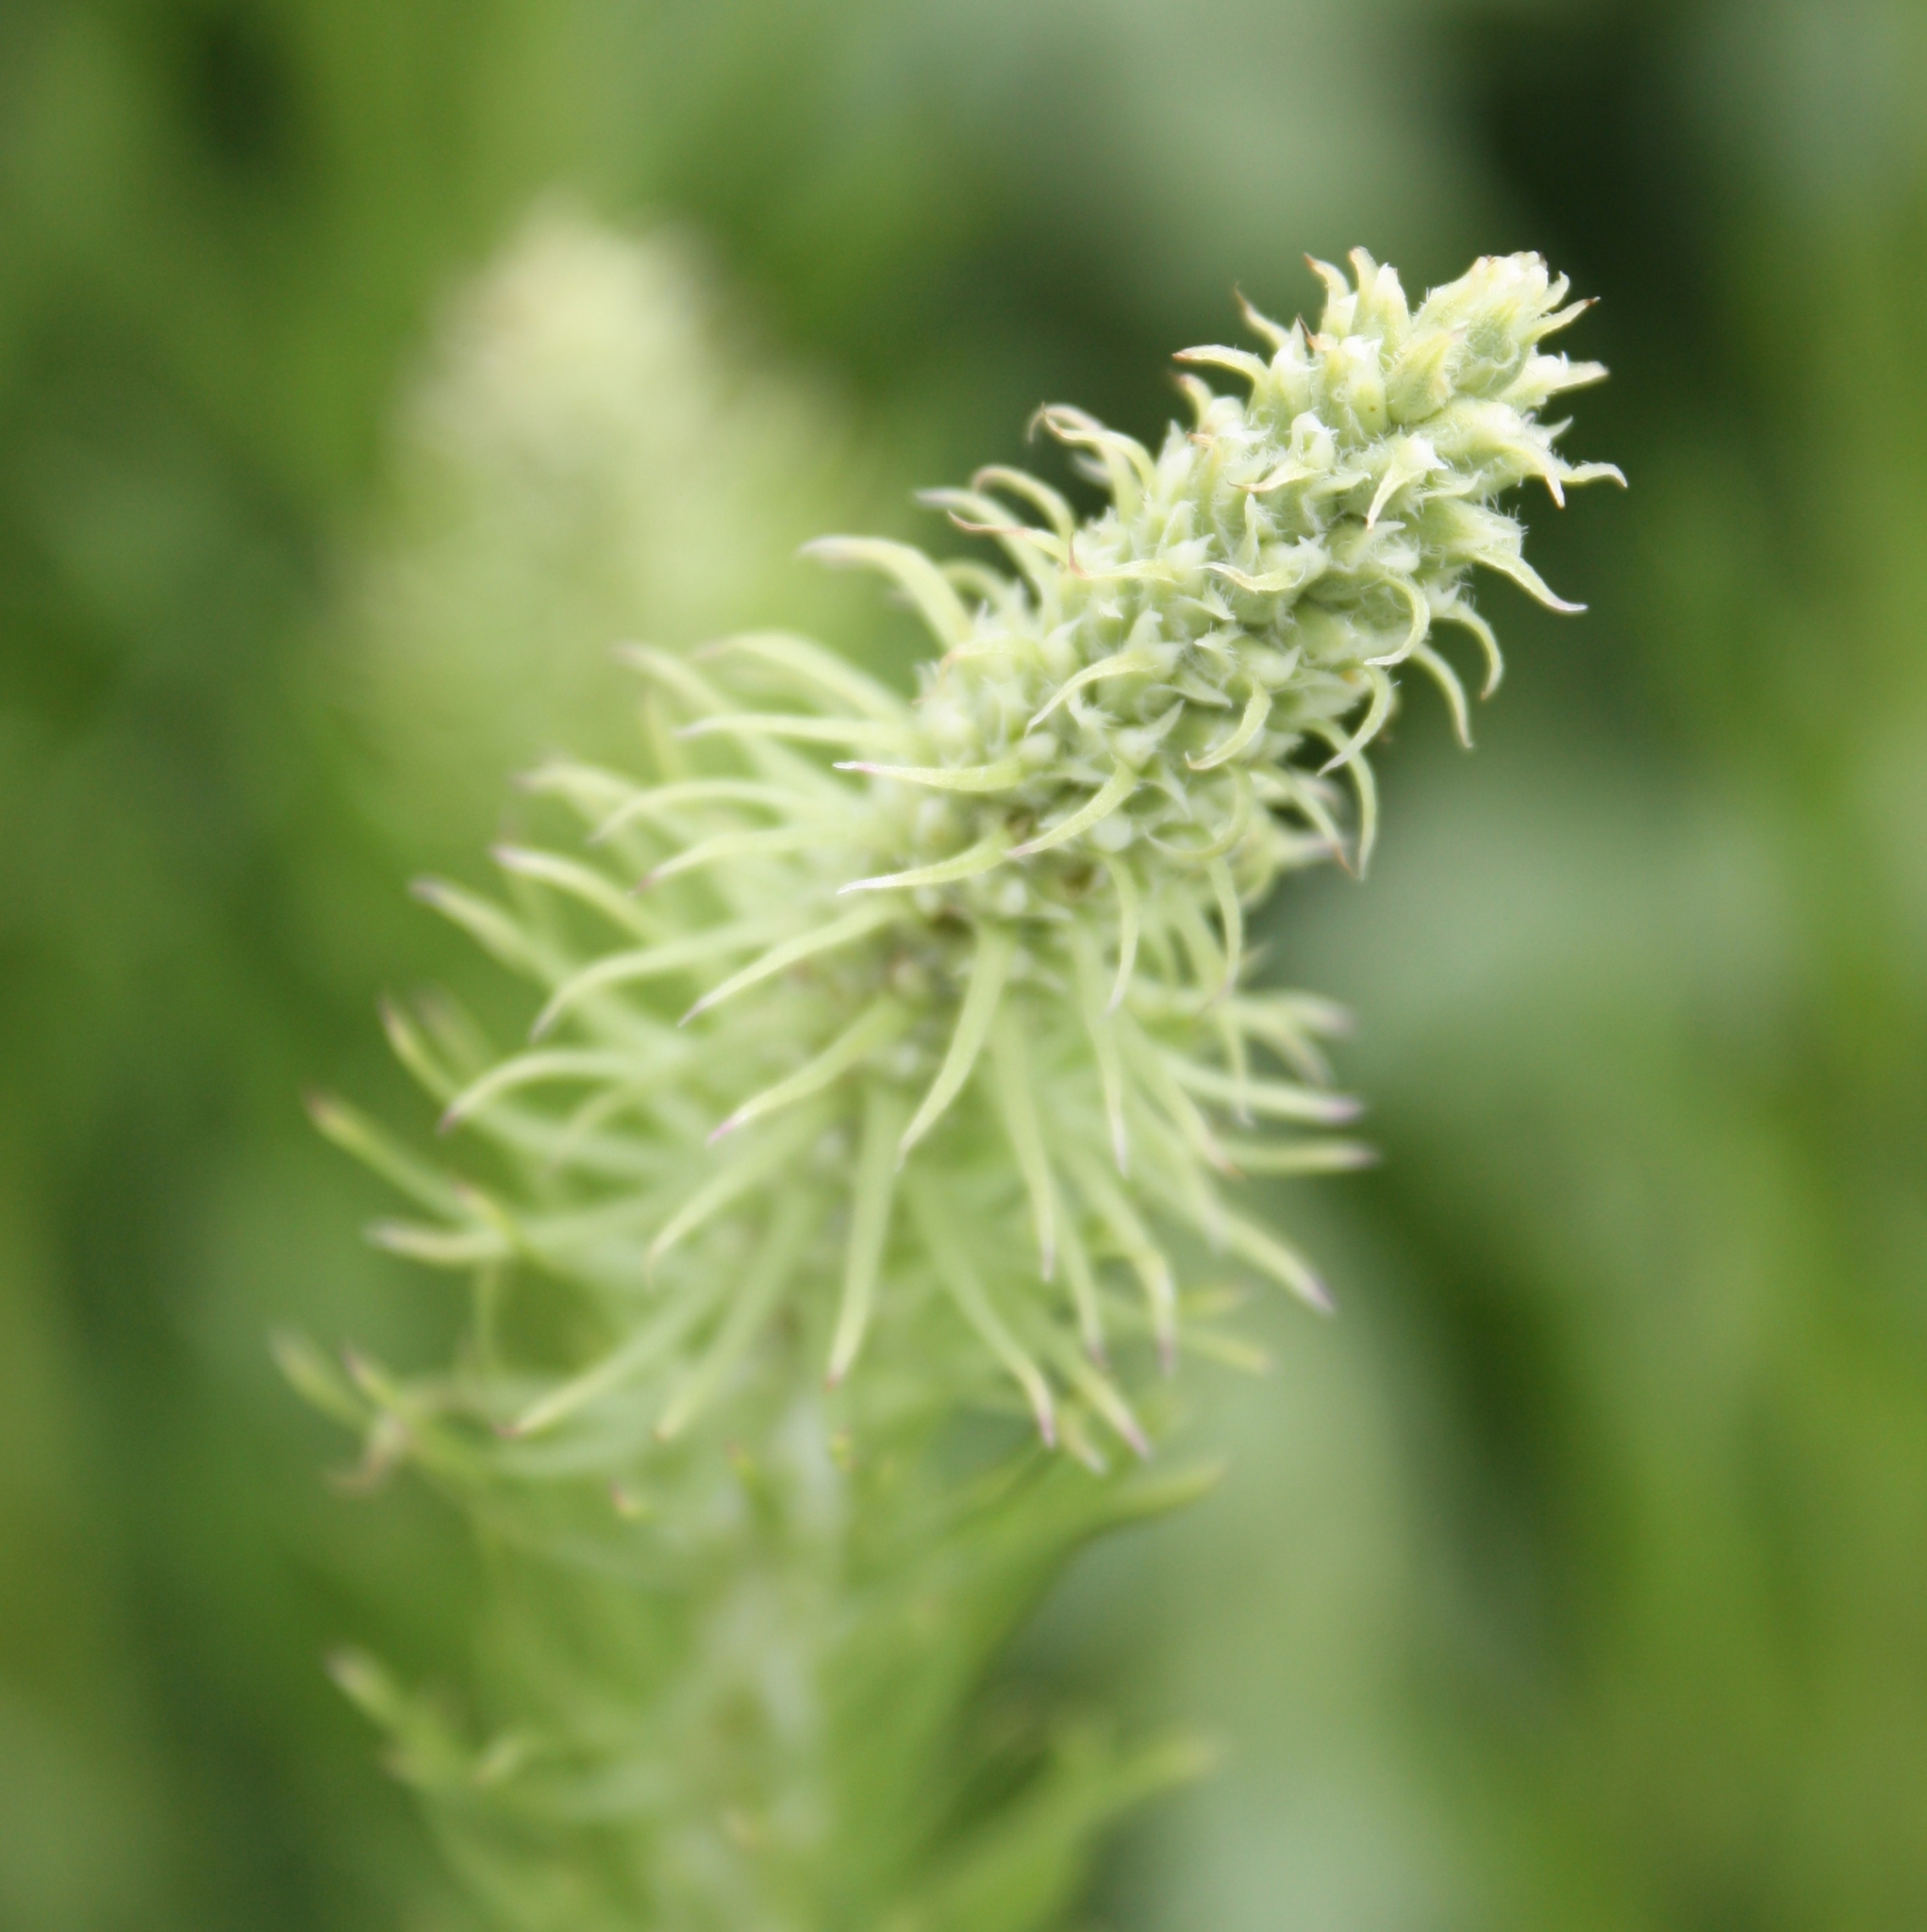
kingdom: Plantae
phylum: Tracheophyta
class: Magnoliopsida
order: Asterales
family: Asteraceae
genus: Liatris
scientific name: Liatris pycnostachya
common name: Cattail gayfeather
